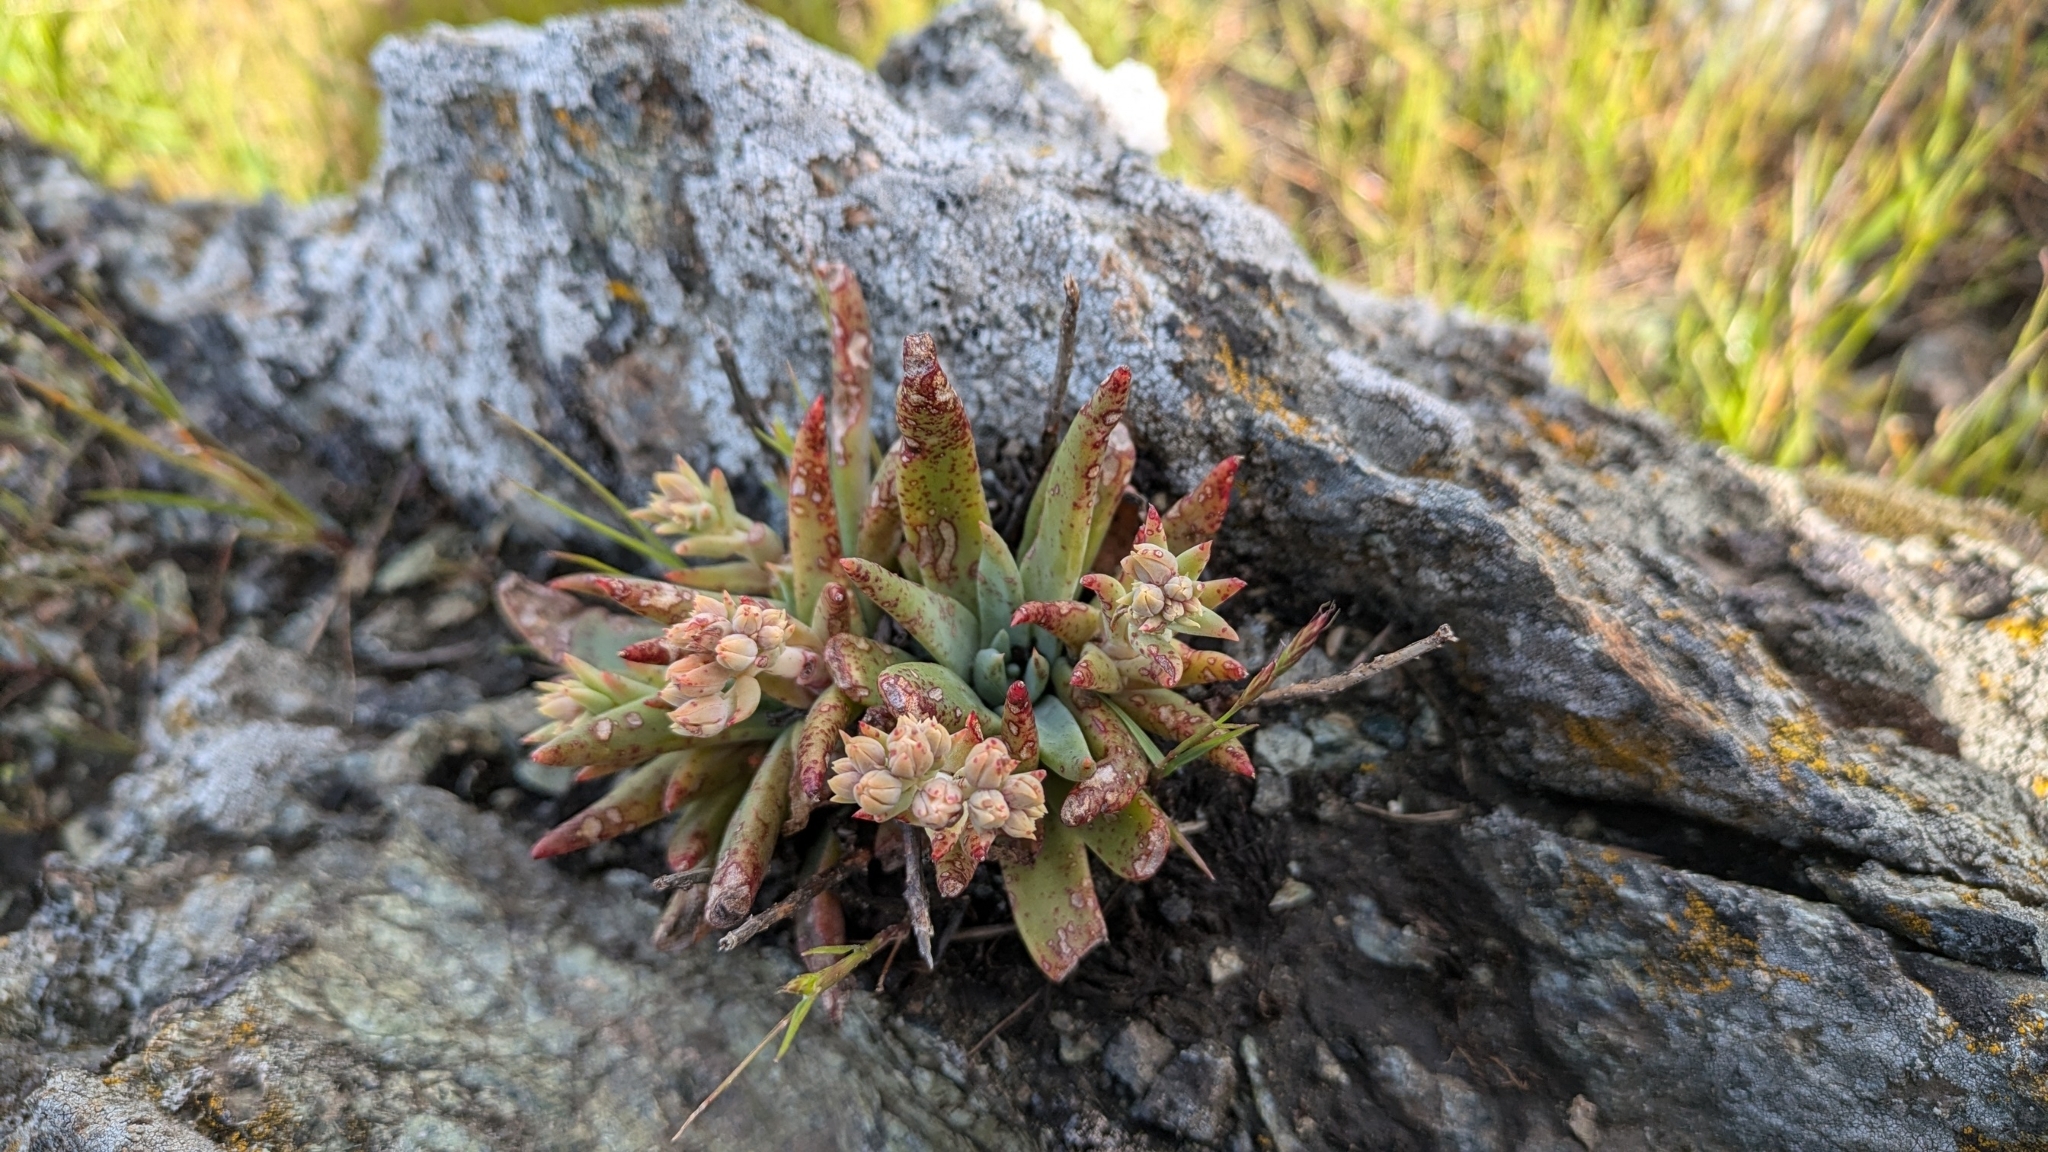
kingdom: Plantae
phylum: Tracheophyta
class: Magnoliopsida
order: Saxifragales
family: Crassulaceae
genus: Dudleya
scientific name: Dudleya abramsii
